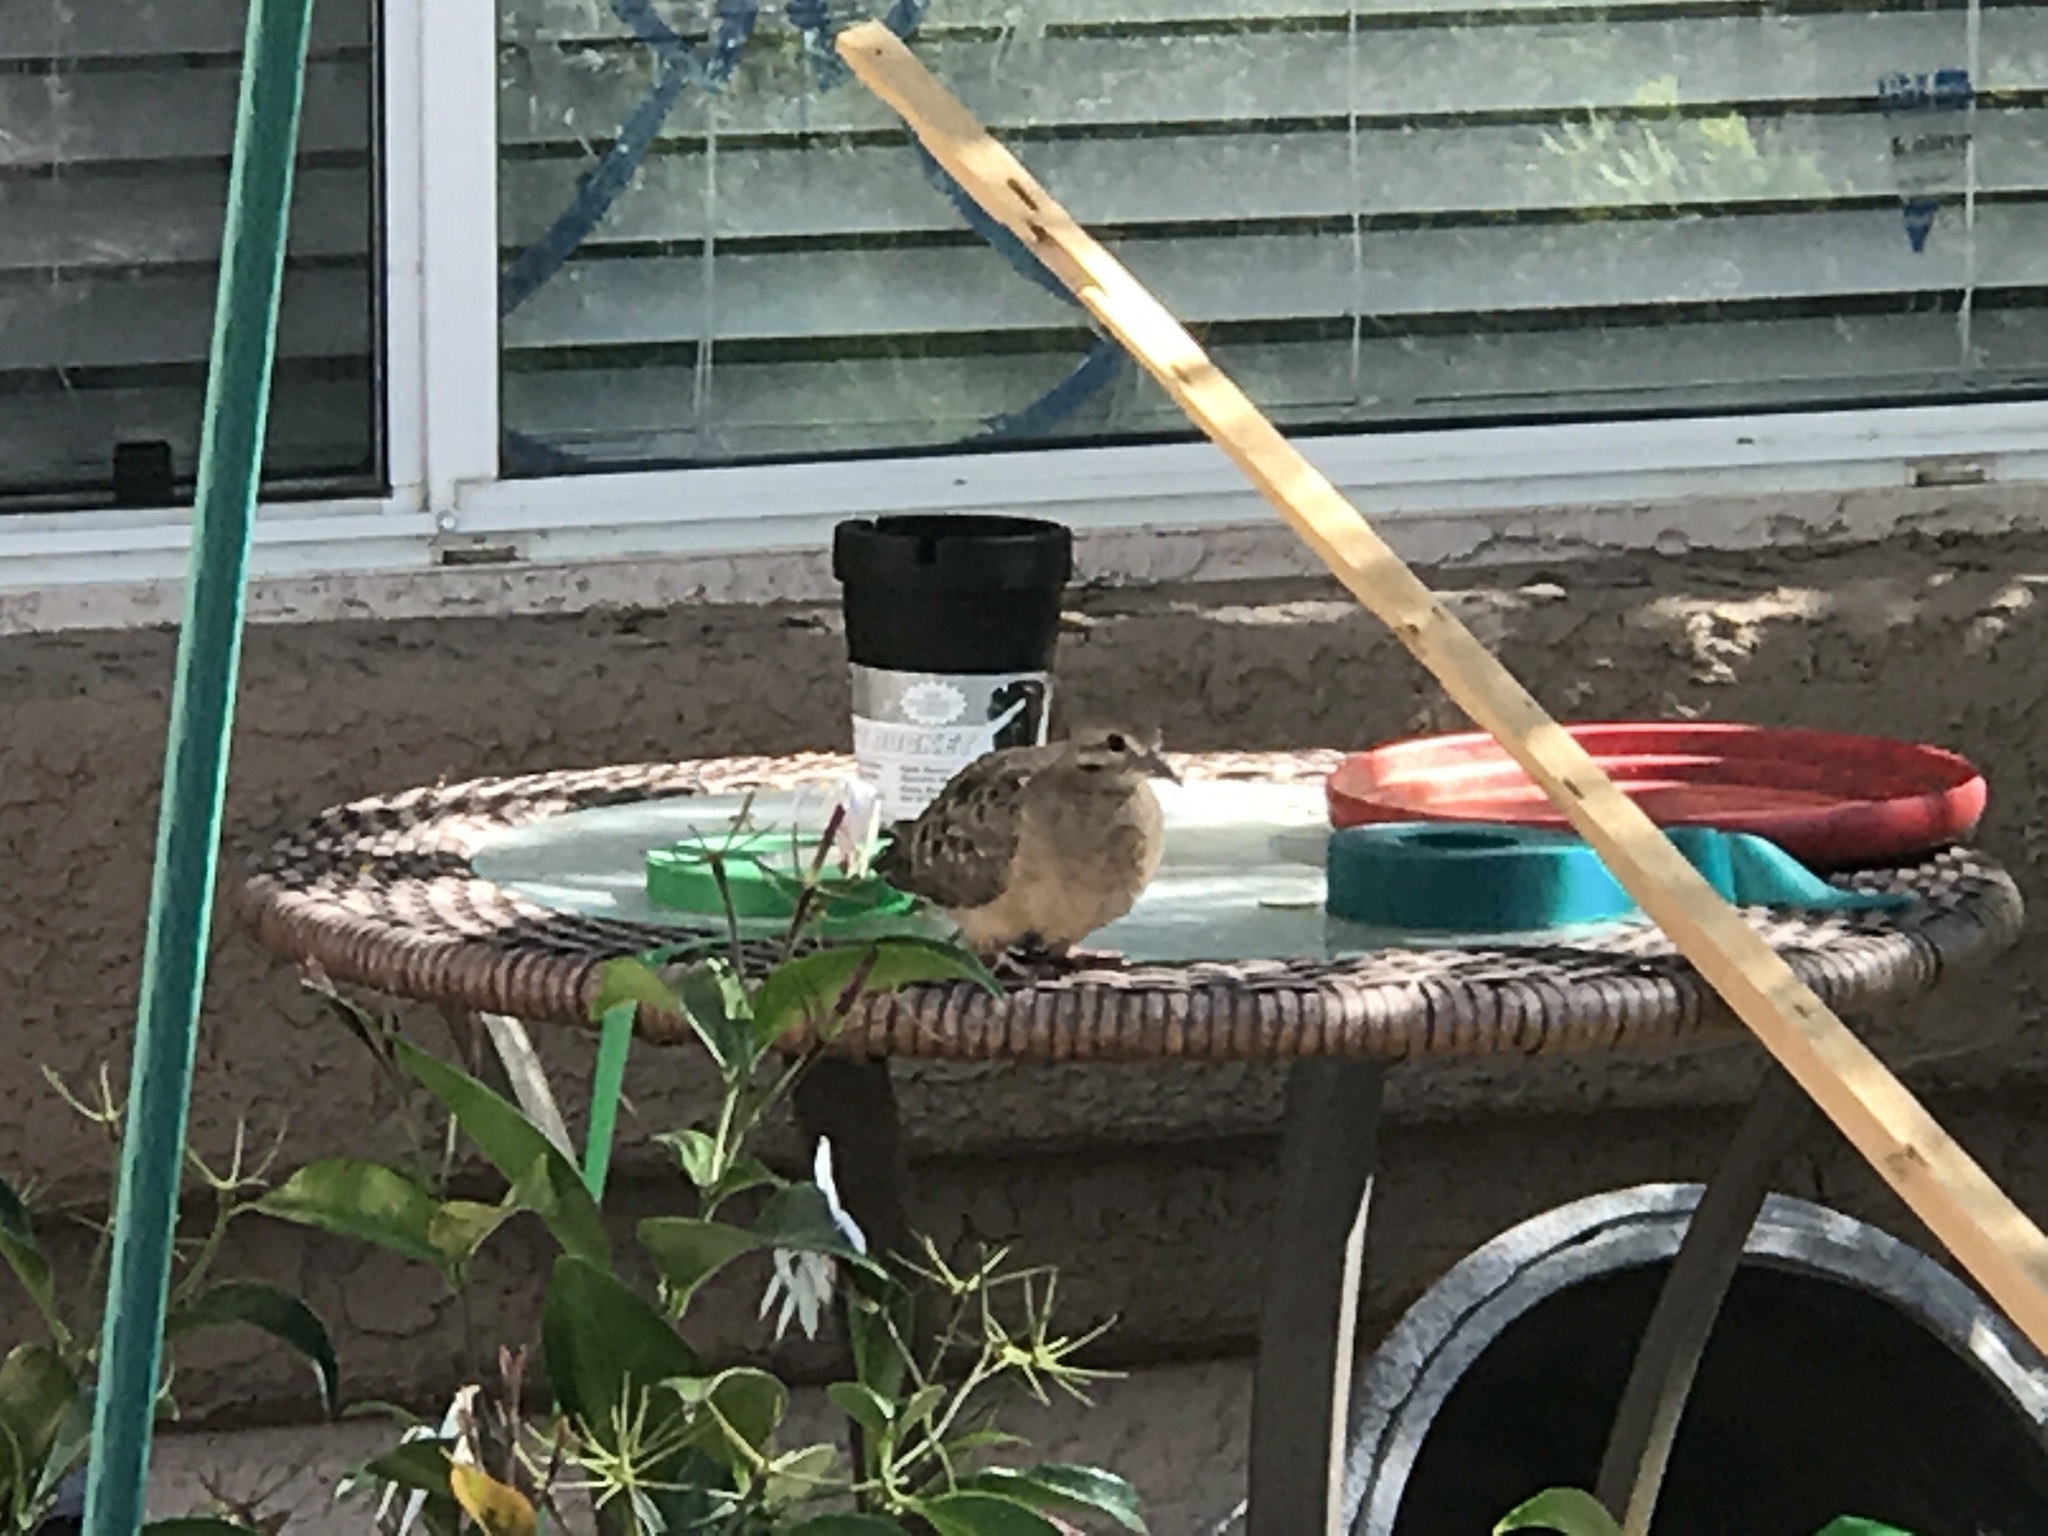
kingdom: Animalia
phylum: Chordata
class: Aves
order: Columbiformes
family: Columbidae
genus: Zenaida
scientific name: Zenaida macroura
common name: Mourning dove
